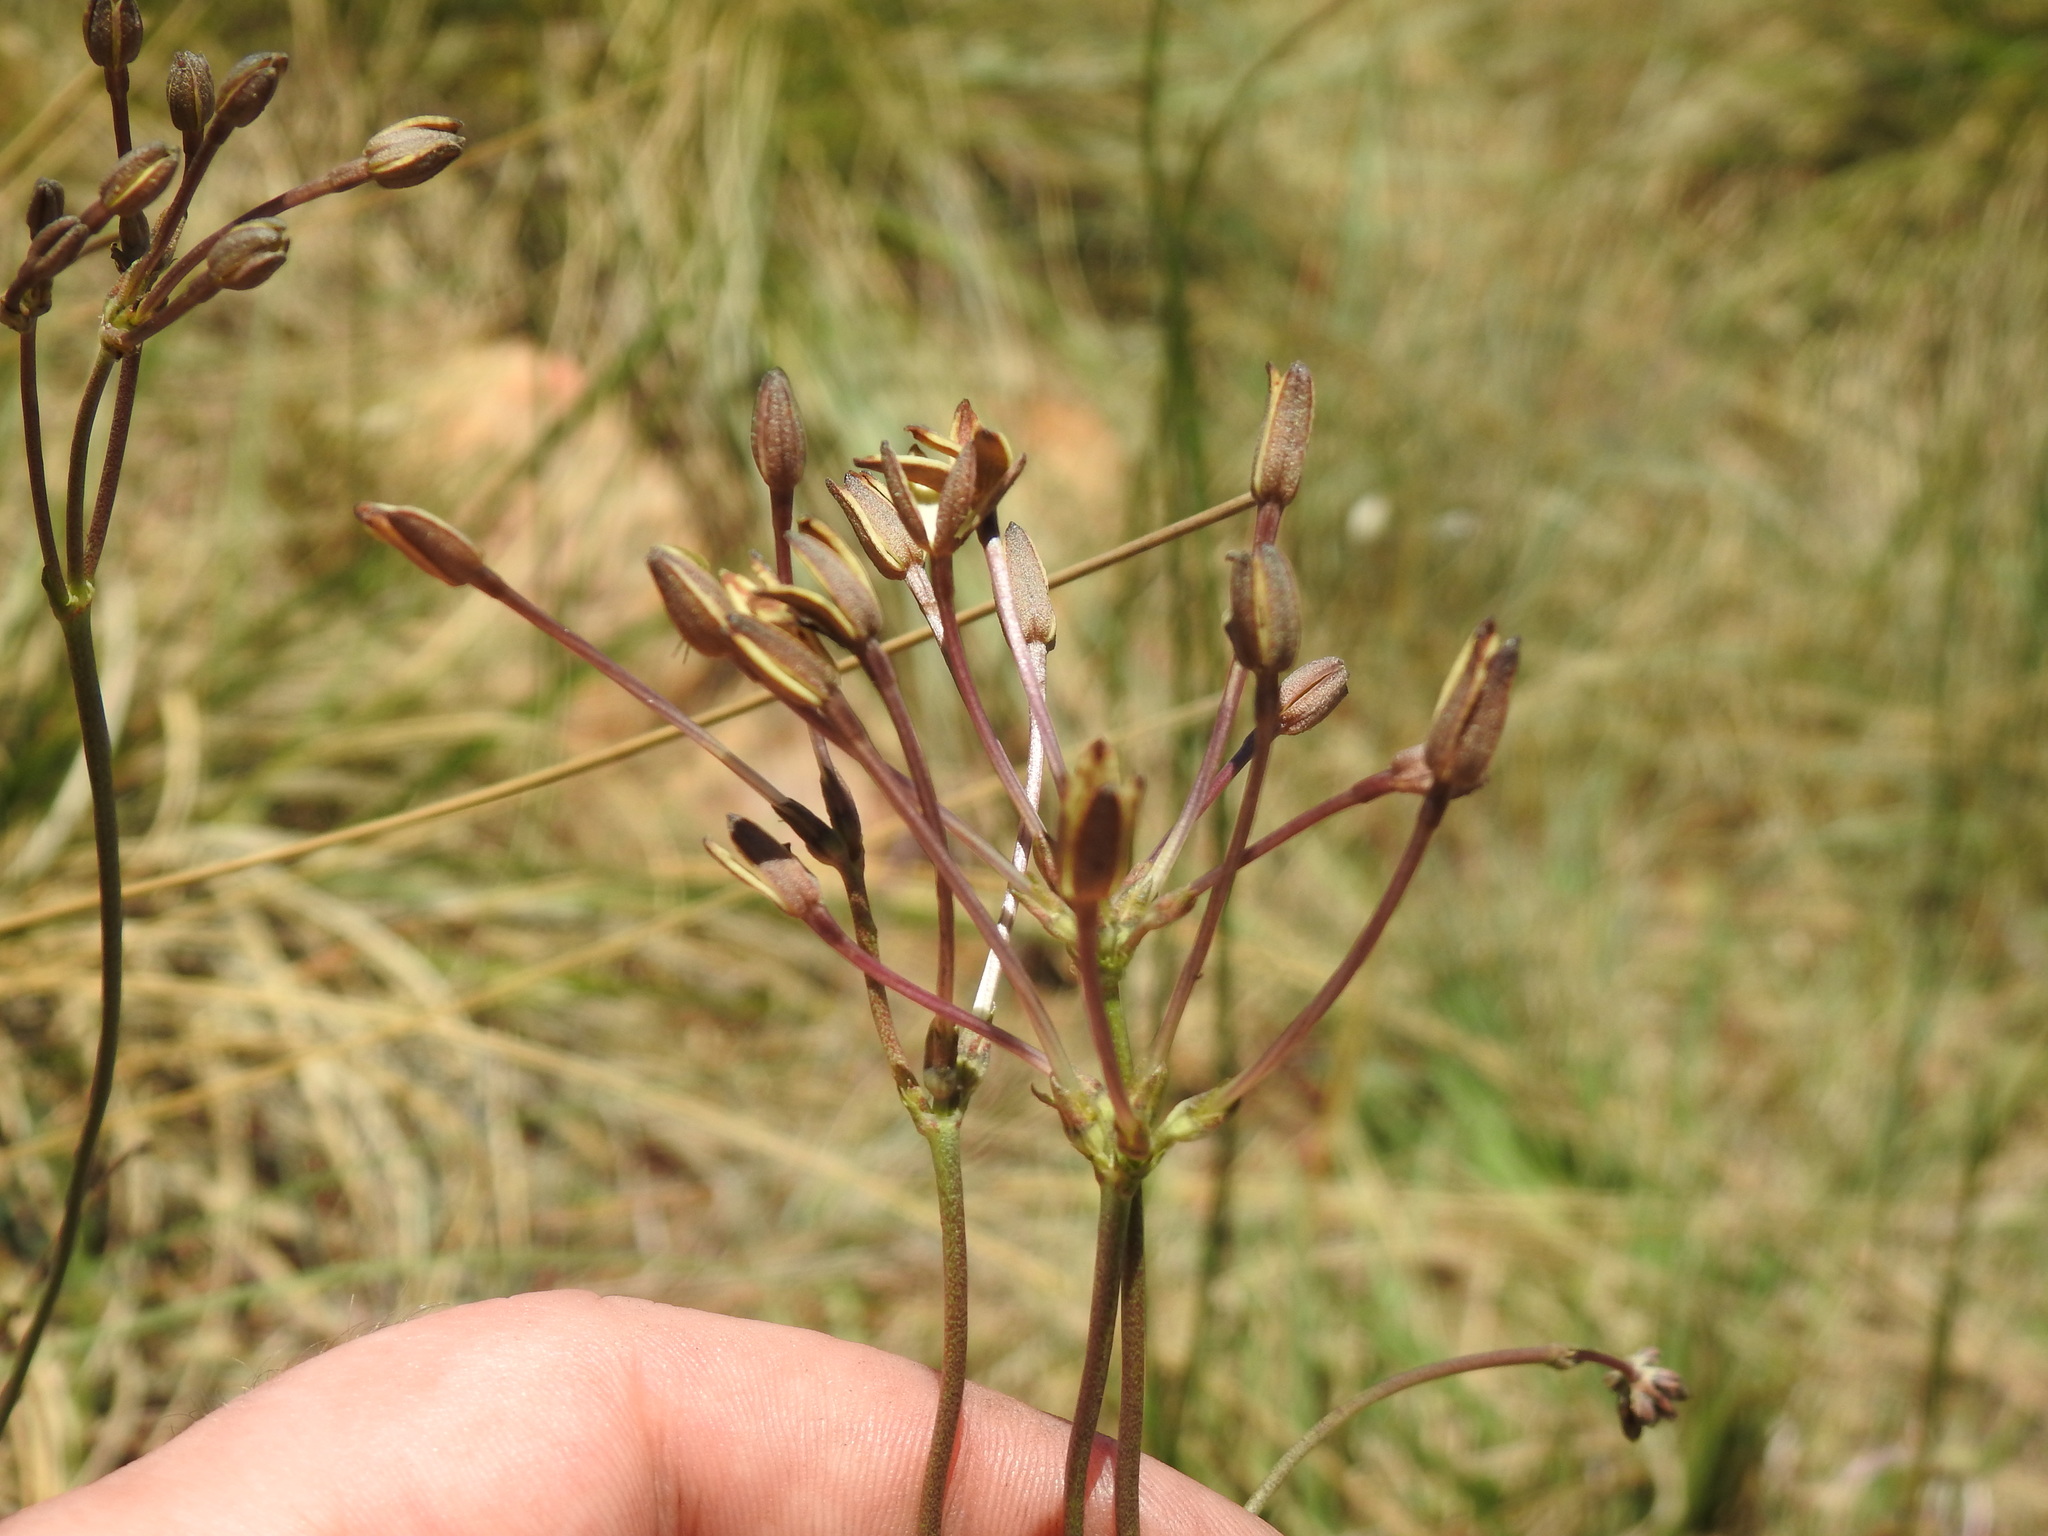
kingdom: Plantae
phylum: Tracheophyta
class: Magnoliopsida
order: Gentianales
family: Rubiaceae
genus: Kohautia
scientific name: Kohautia amatymbica
